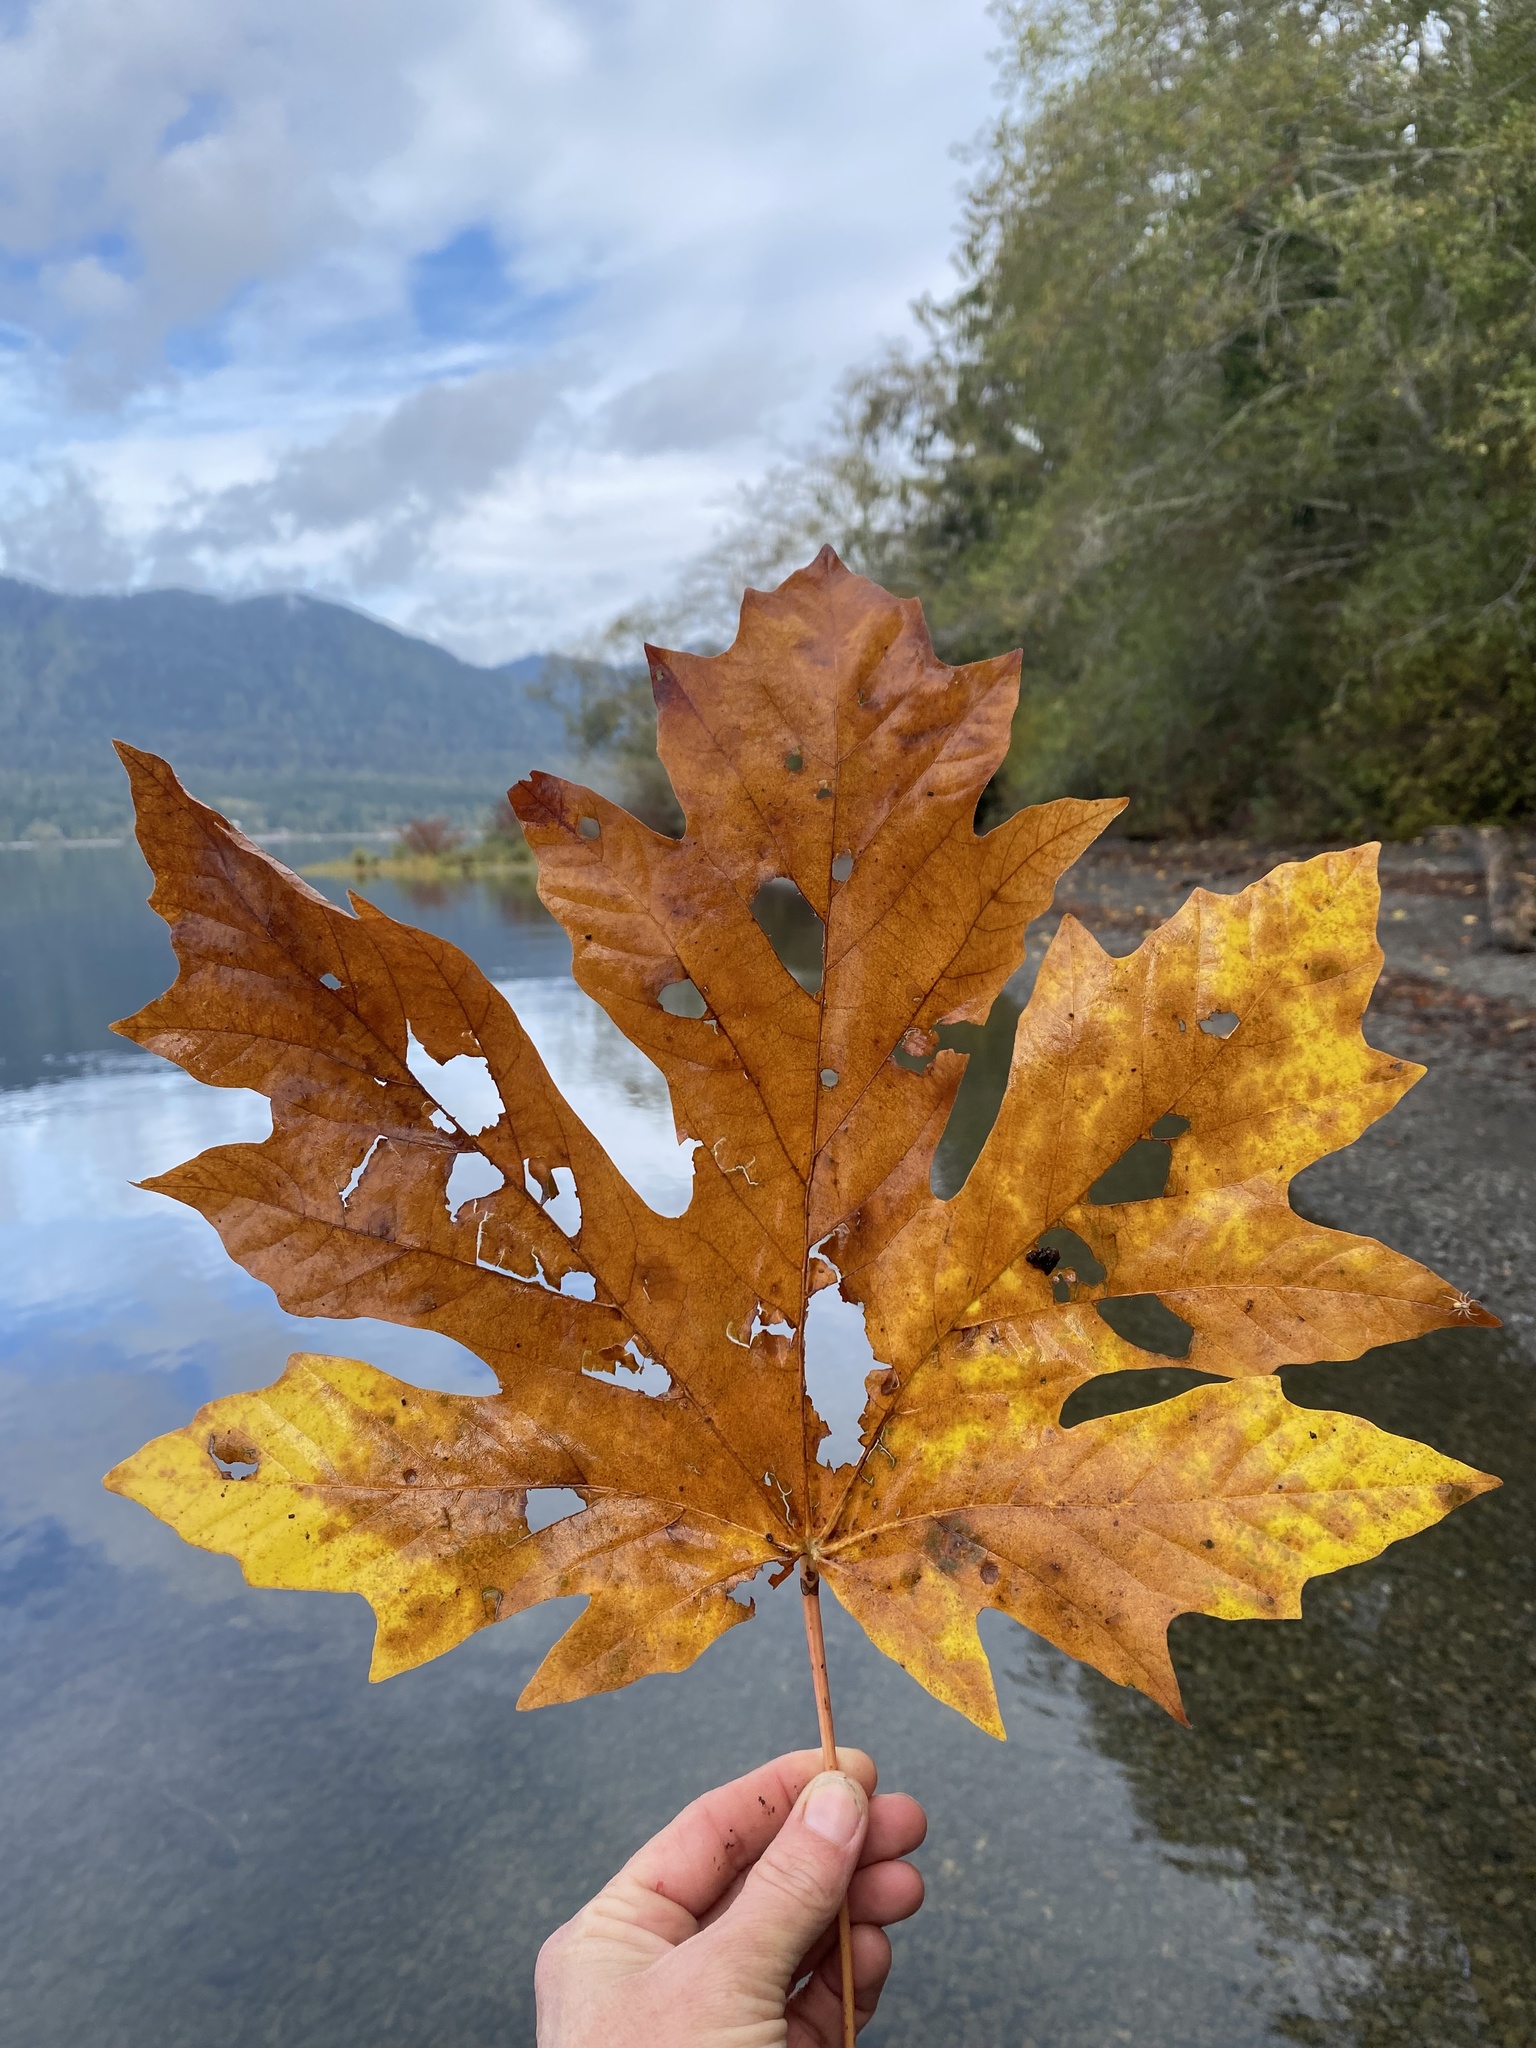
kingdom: Plantae
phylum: Tracheophyta
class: Magnoliopsida
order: Sapindales
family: Sapindaceae
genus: Acer
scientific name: Acer macrophyllum
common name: Oregon maple
